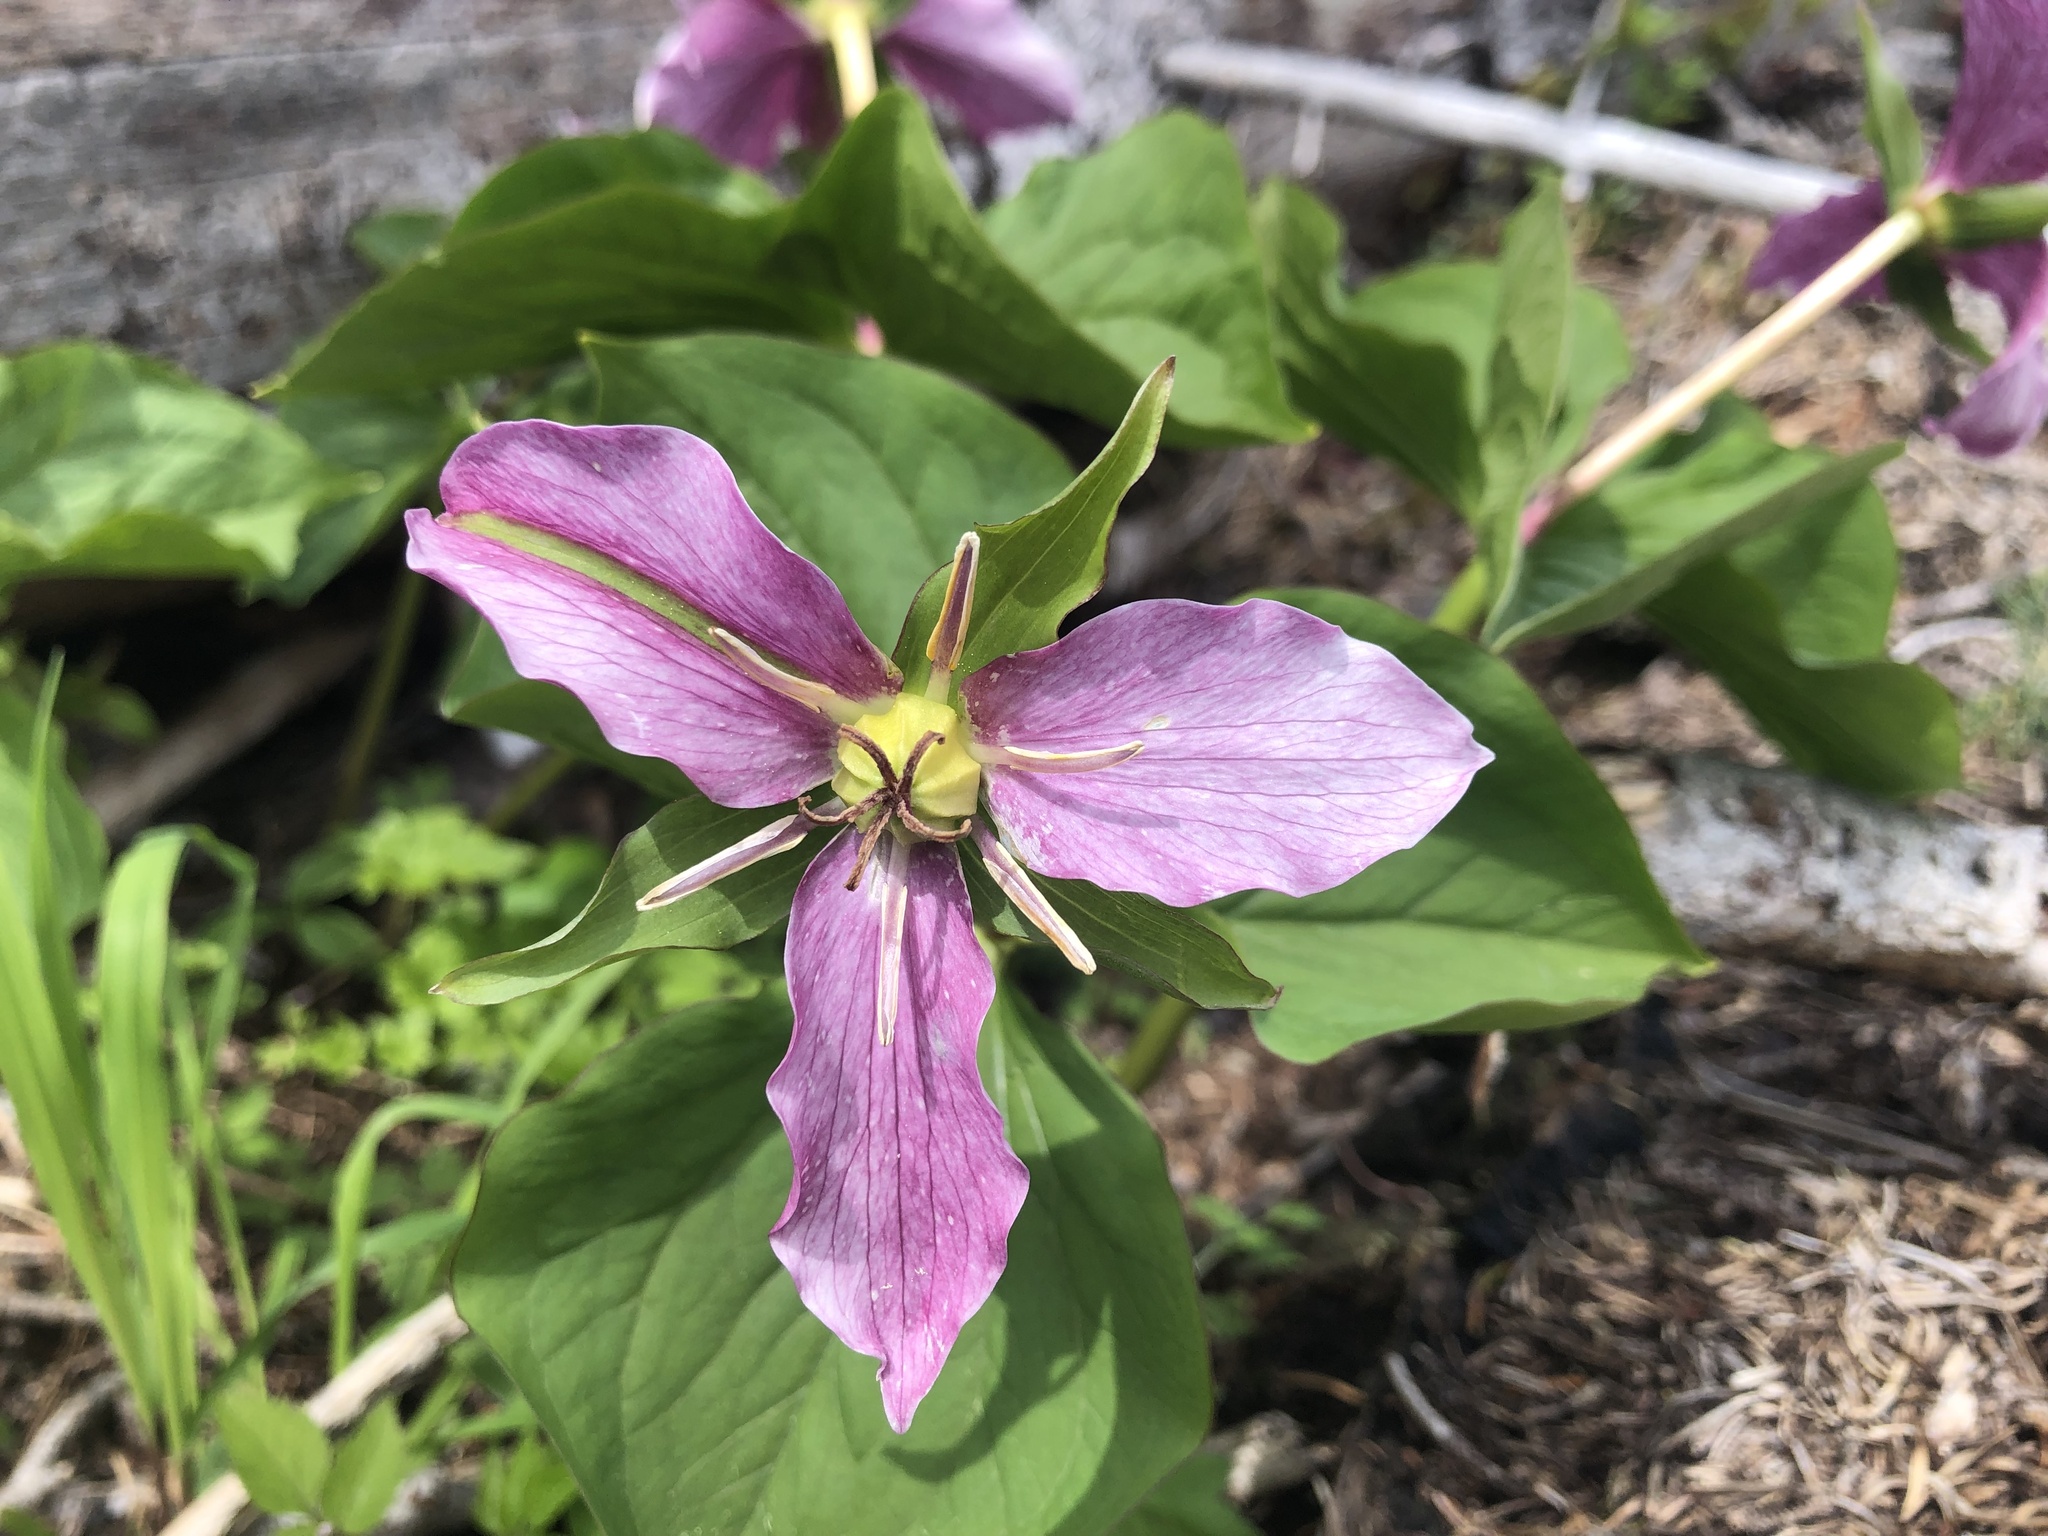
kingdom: Plantae
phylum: Tracheophyta
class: Liliopsida
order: Liliales
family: Melanthiaceae
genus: Trillium
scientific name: Trillium ovatum
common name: Pacific trillium
